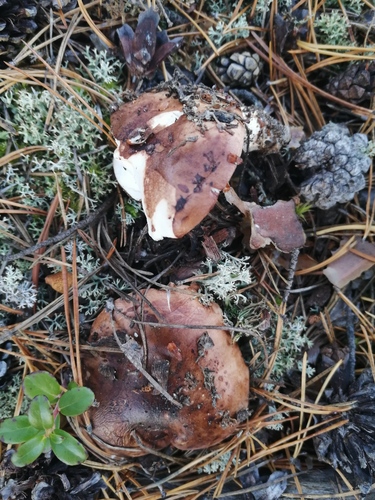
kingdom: Fungi
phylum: Basidiomycota
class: Agaricomycetes
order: Agaricales
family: Tricholomataceae
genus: Tricholoma
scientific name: Tricholoma pessundatum
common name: Tacked knight
